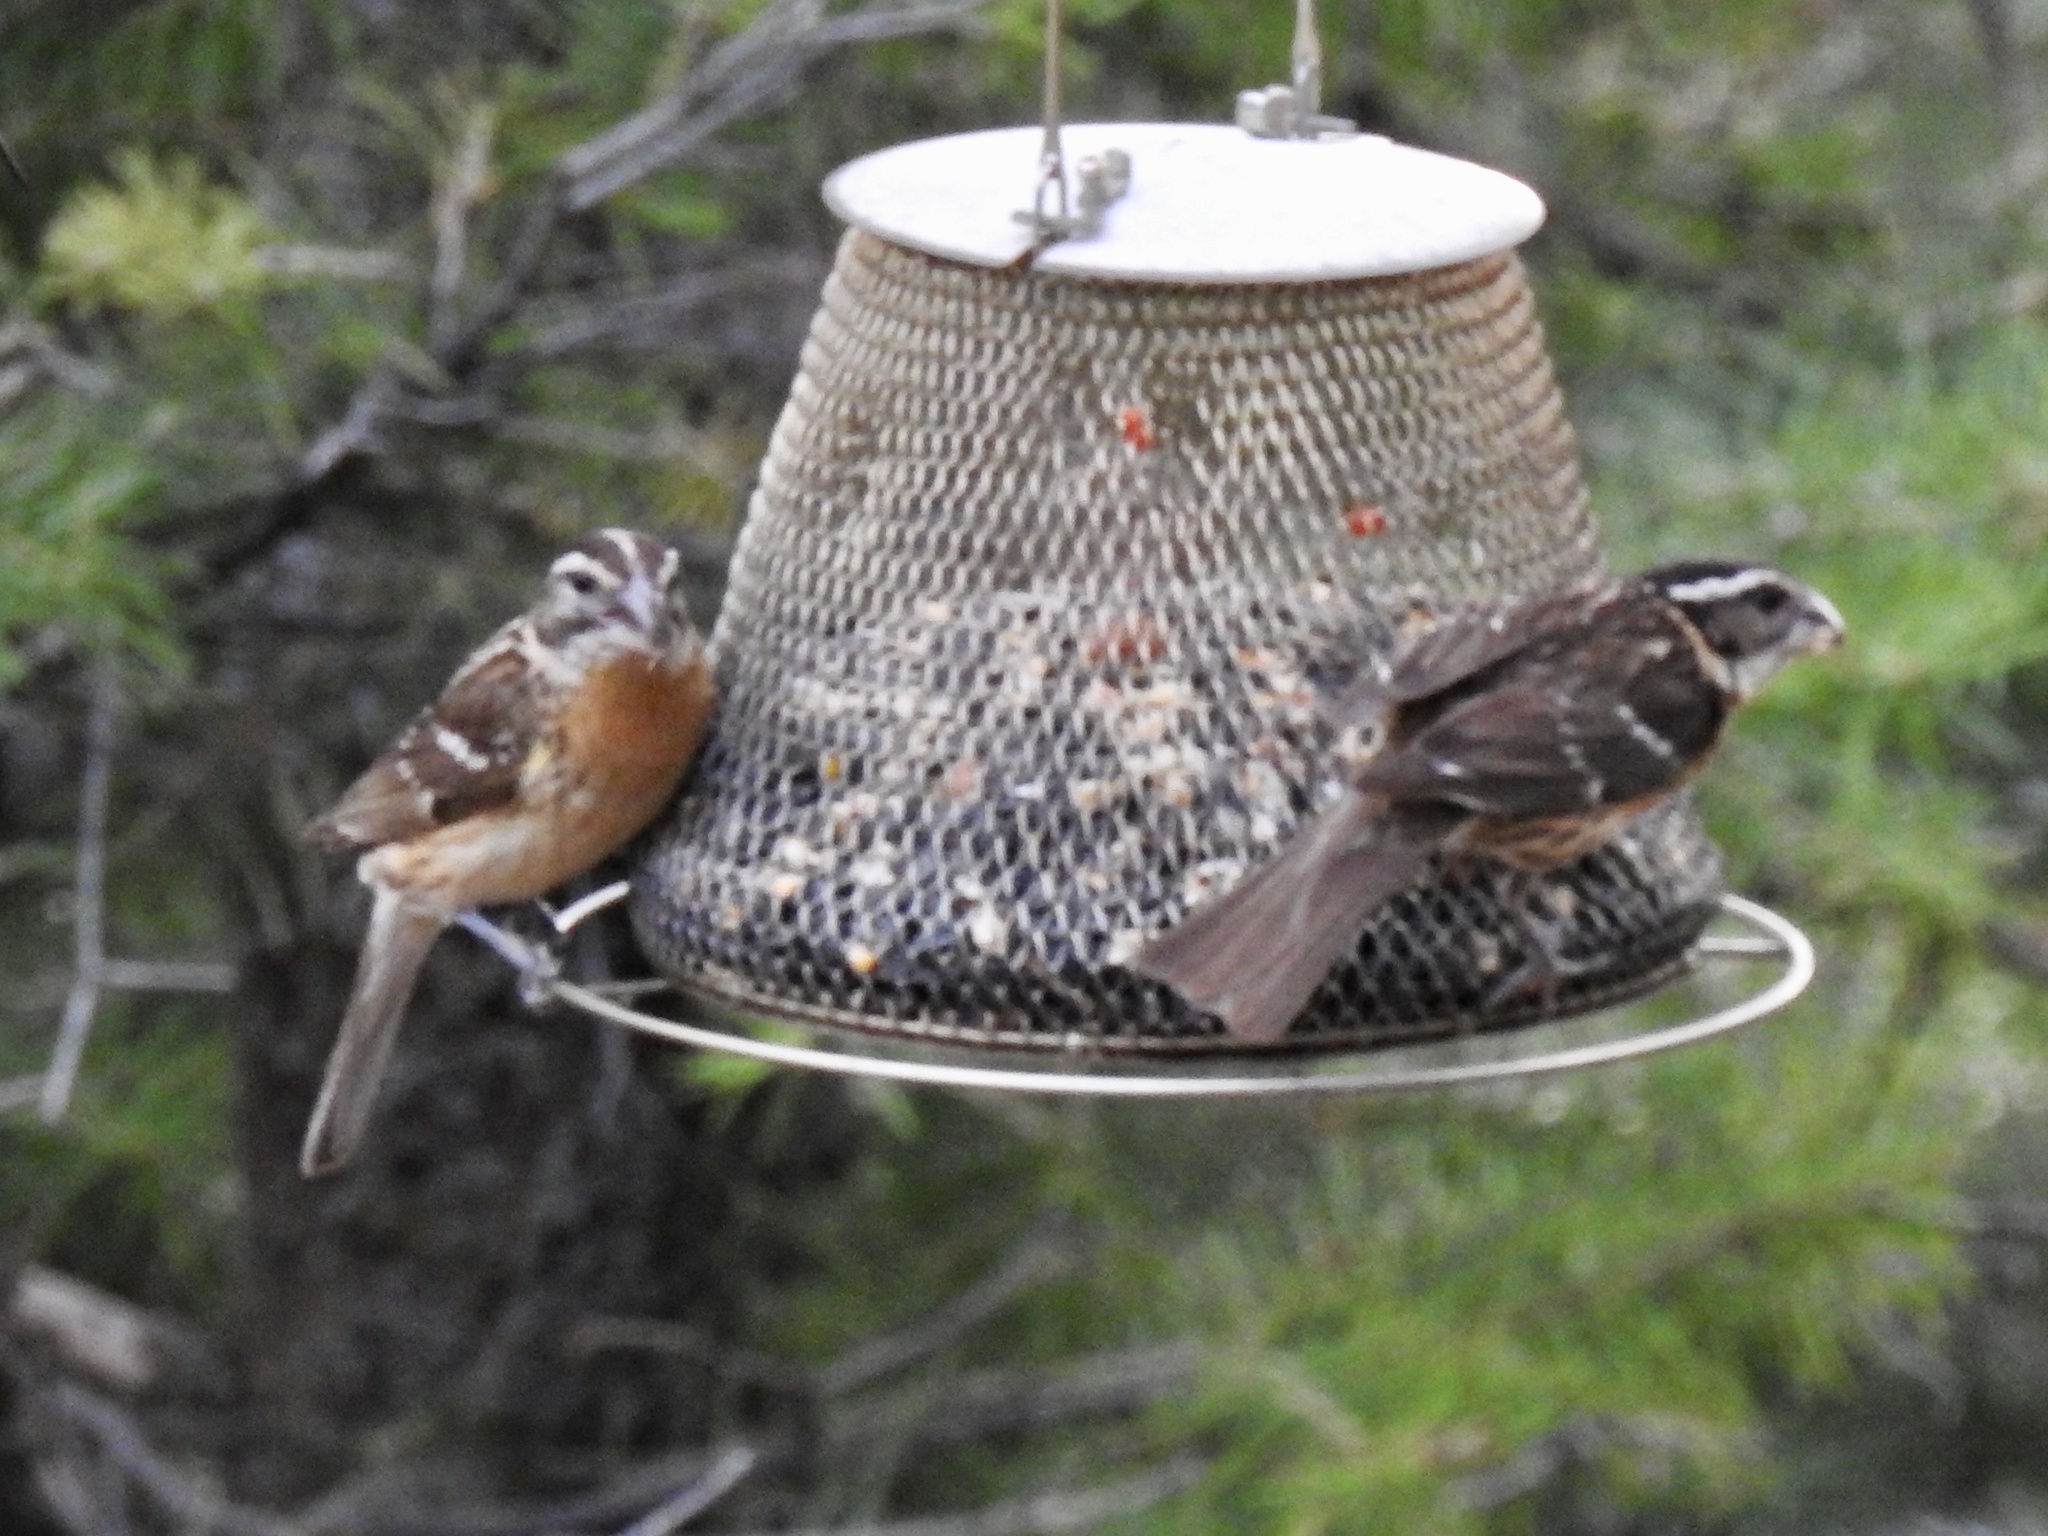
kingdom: Animalia
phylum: Chordata
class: Aves
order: Passeriformes
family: Cardinalidae
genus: Pheucticus
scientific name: Pheucticus melanocephalus
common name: Black-headed grosbeak
